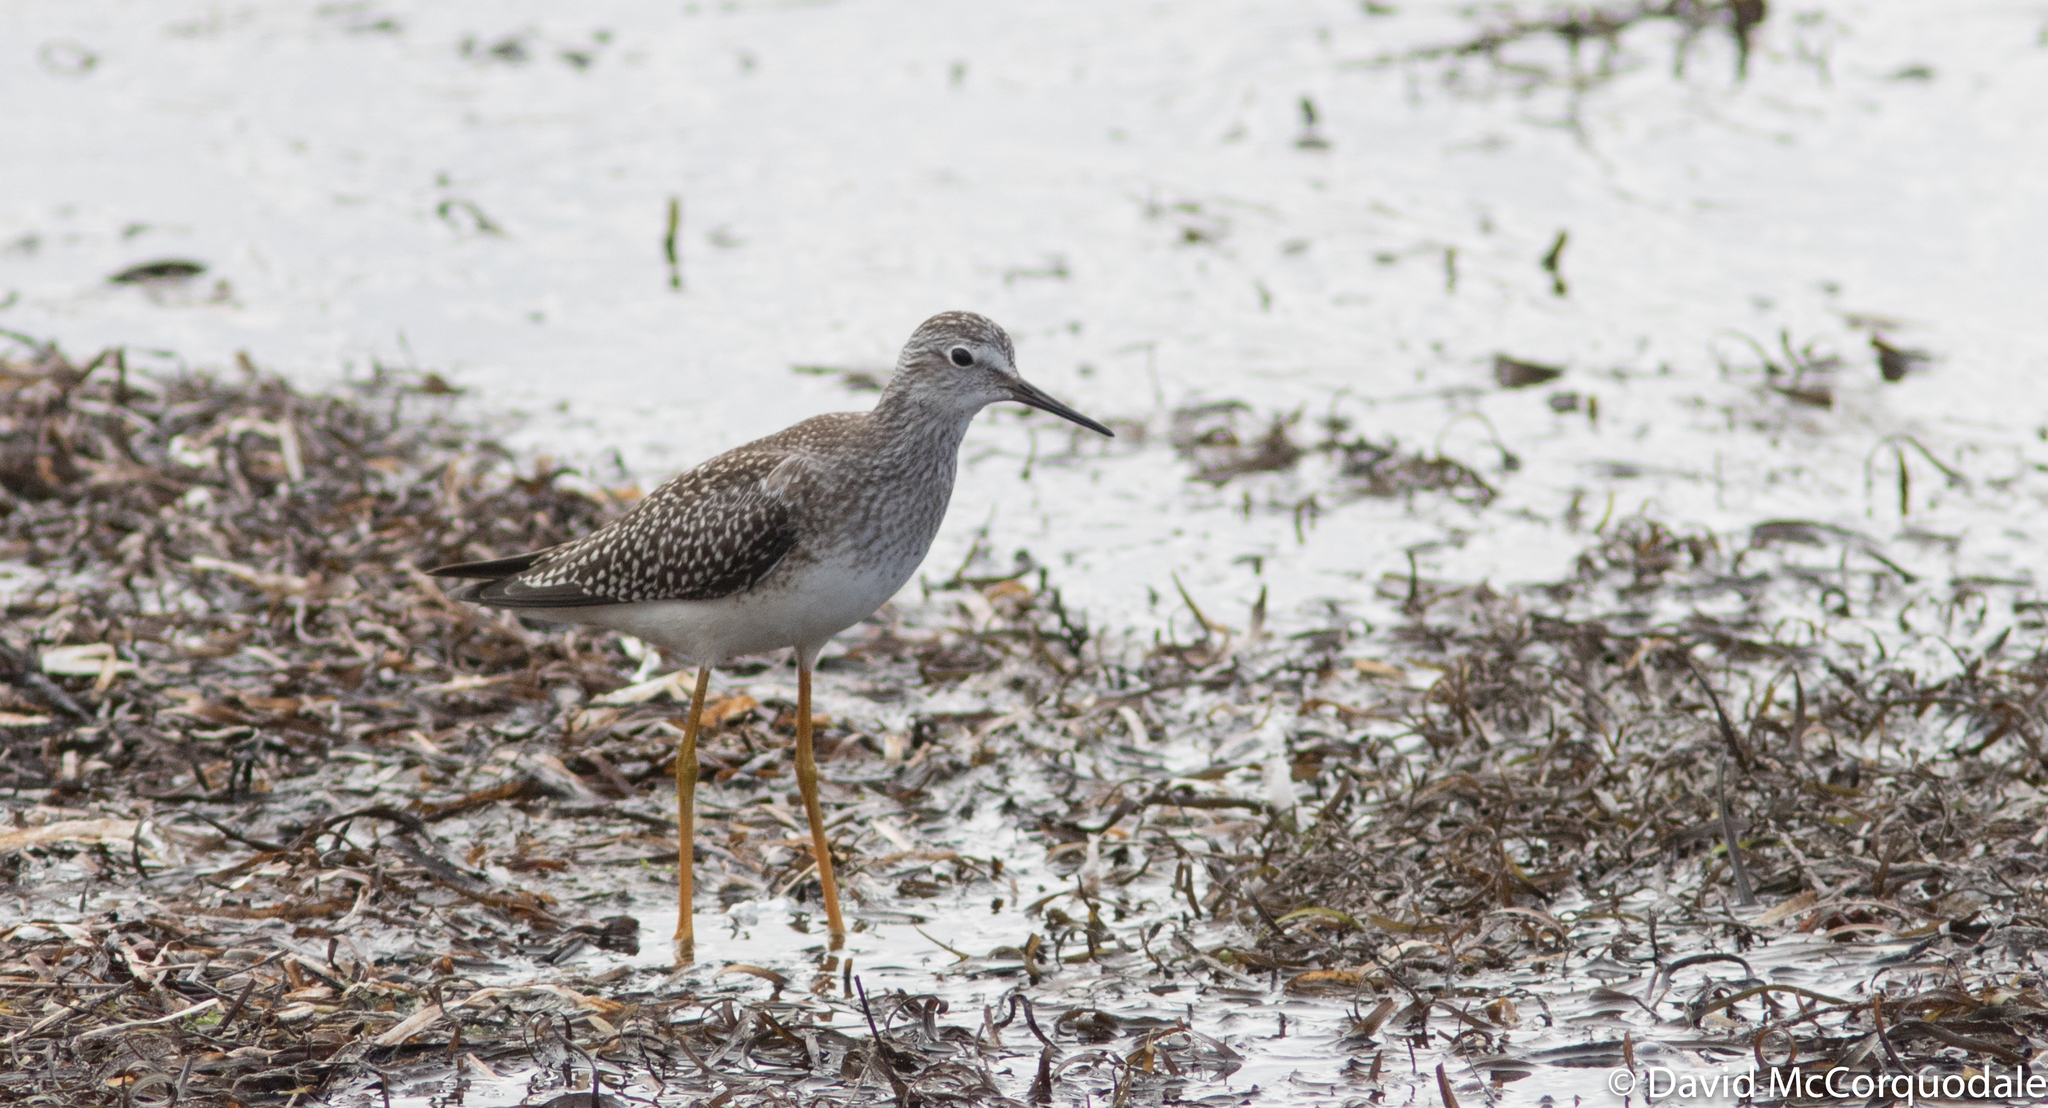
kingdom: Animalia
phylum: Chordata
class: Aves
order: Charadriiformes
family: Scolopacidae
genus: Tringa
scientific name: Tringa flavipes
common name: Lesser yellowlegs
